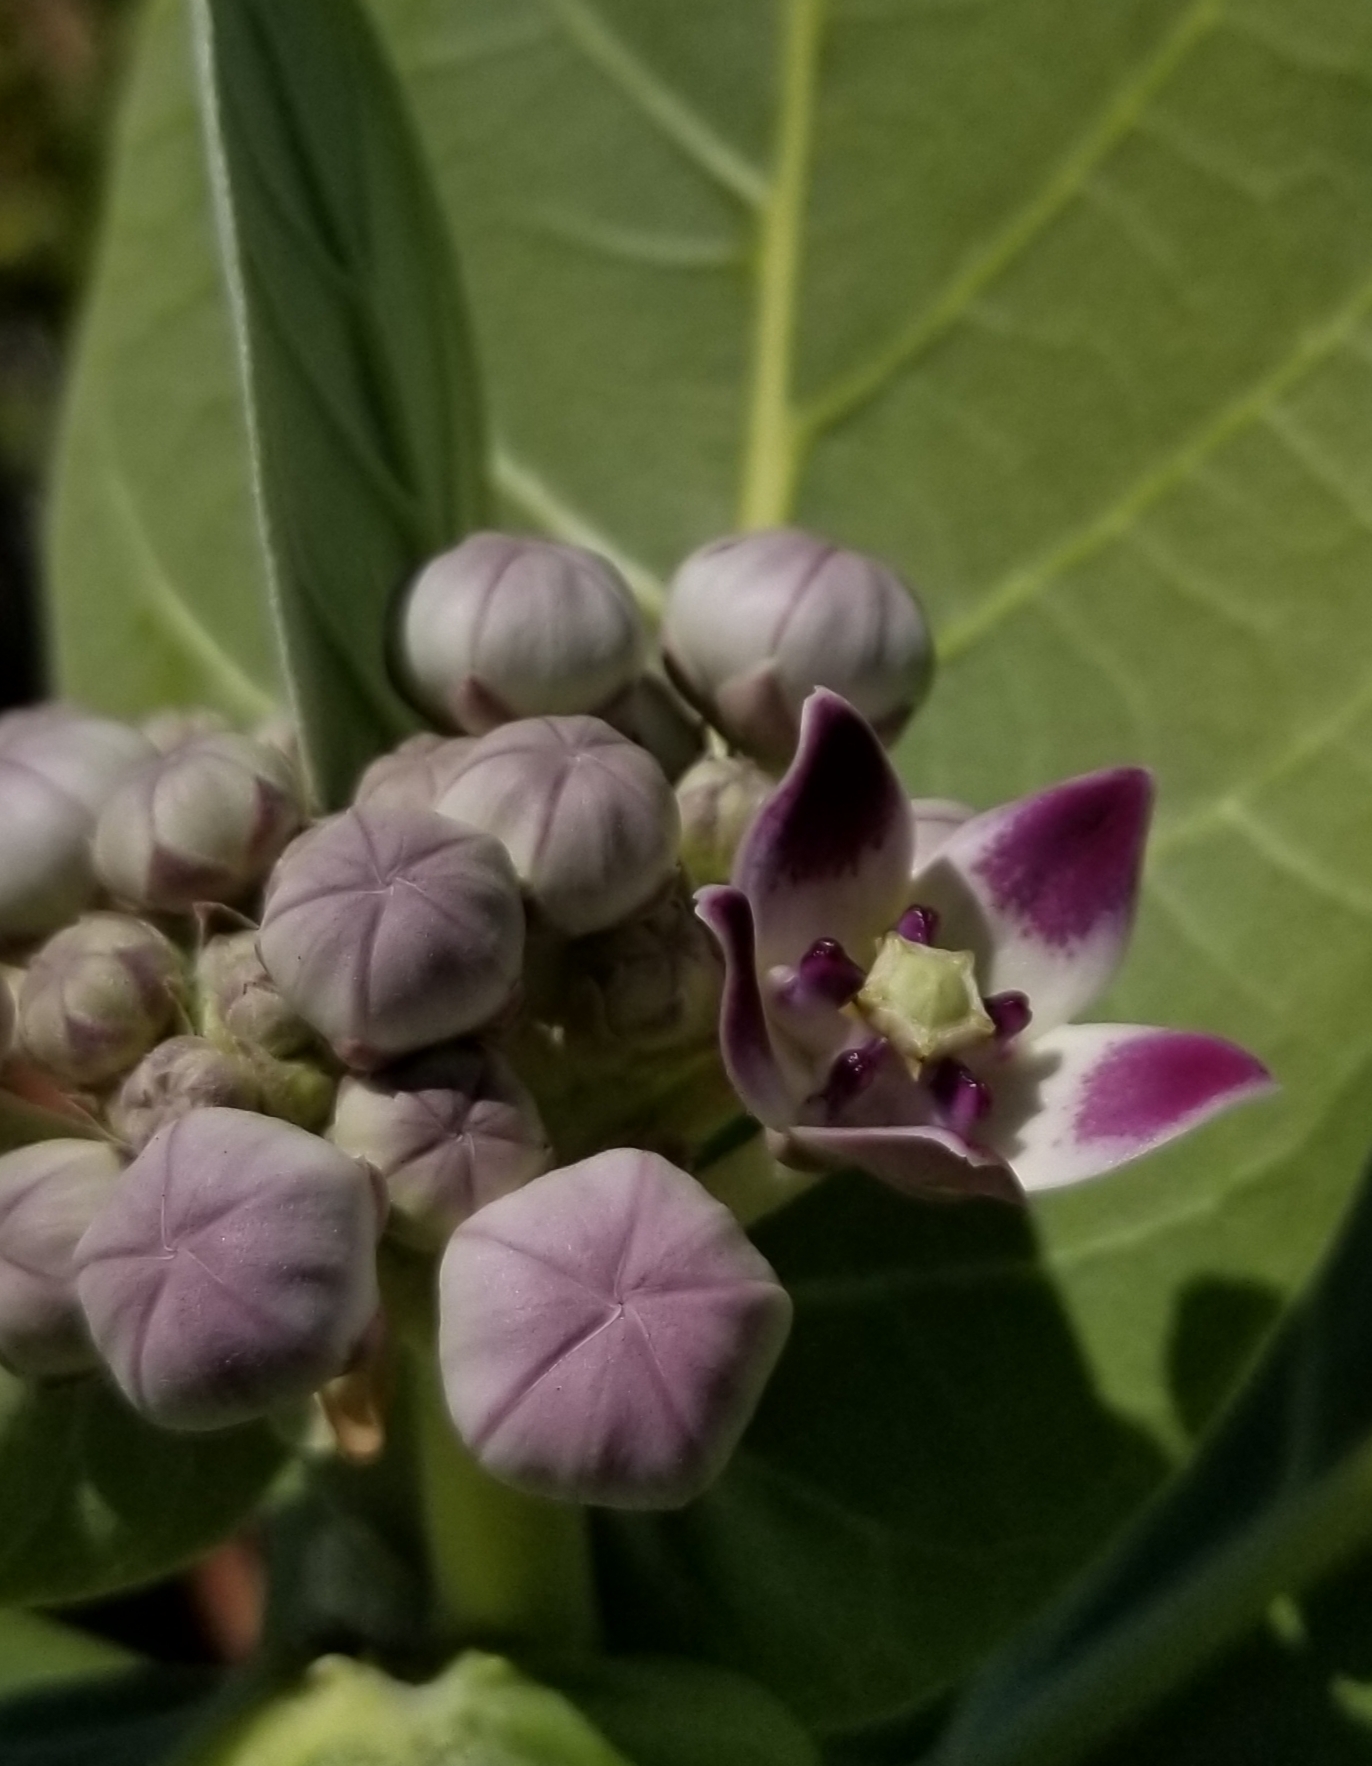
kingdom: Plantae
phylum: Tracheophyta
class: Magnoliopsida
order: Gentianales
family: Apocynaceae
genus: Calotropis
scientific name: Calotropis procera
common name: Roostertree
